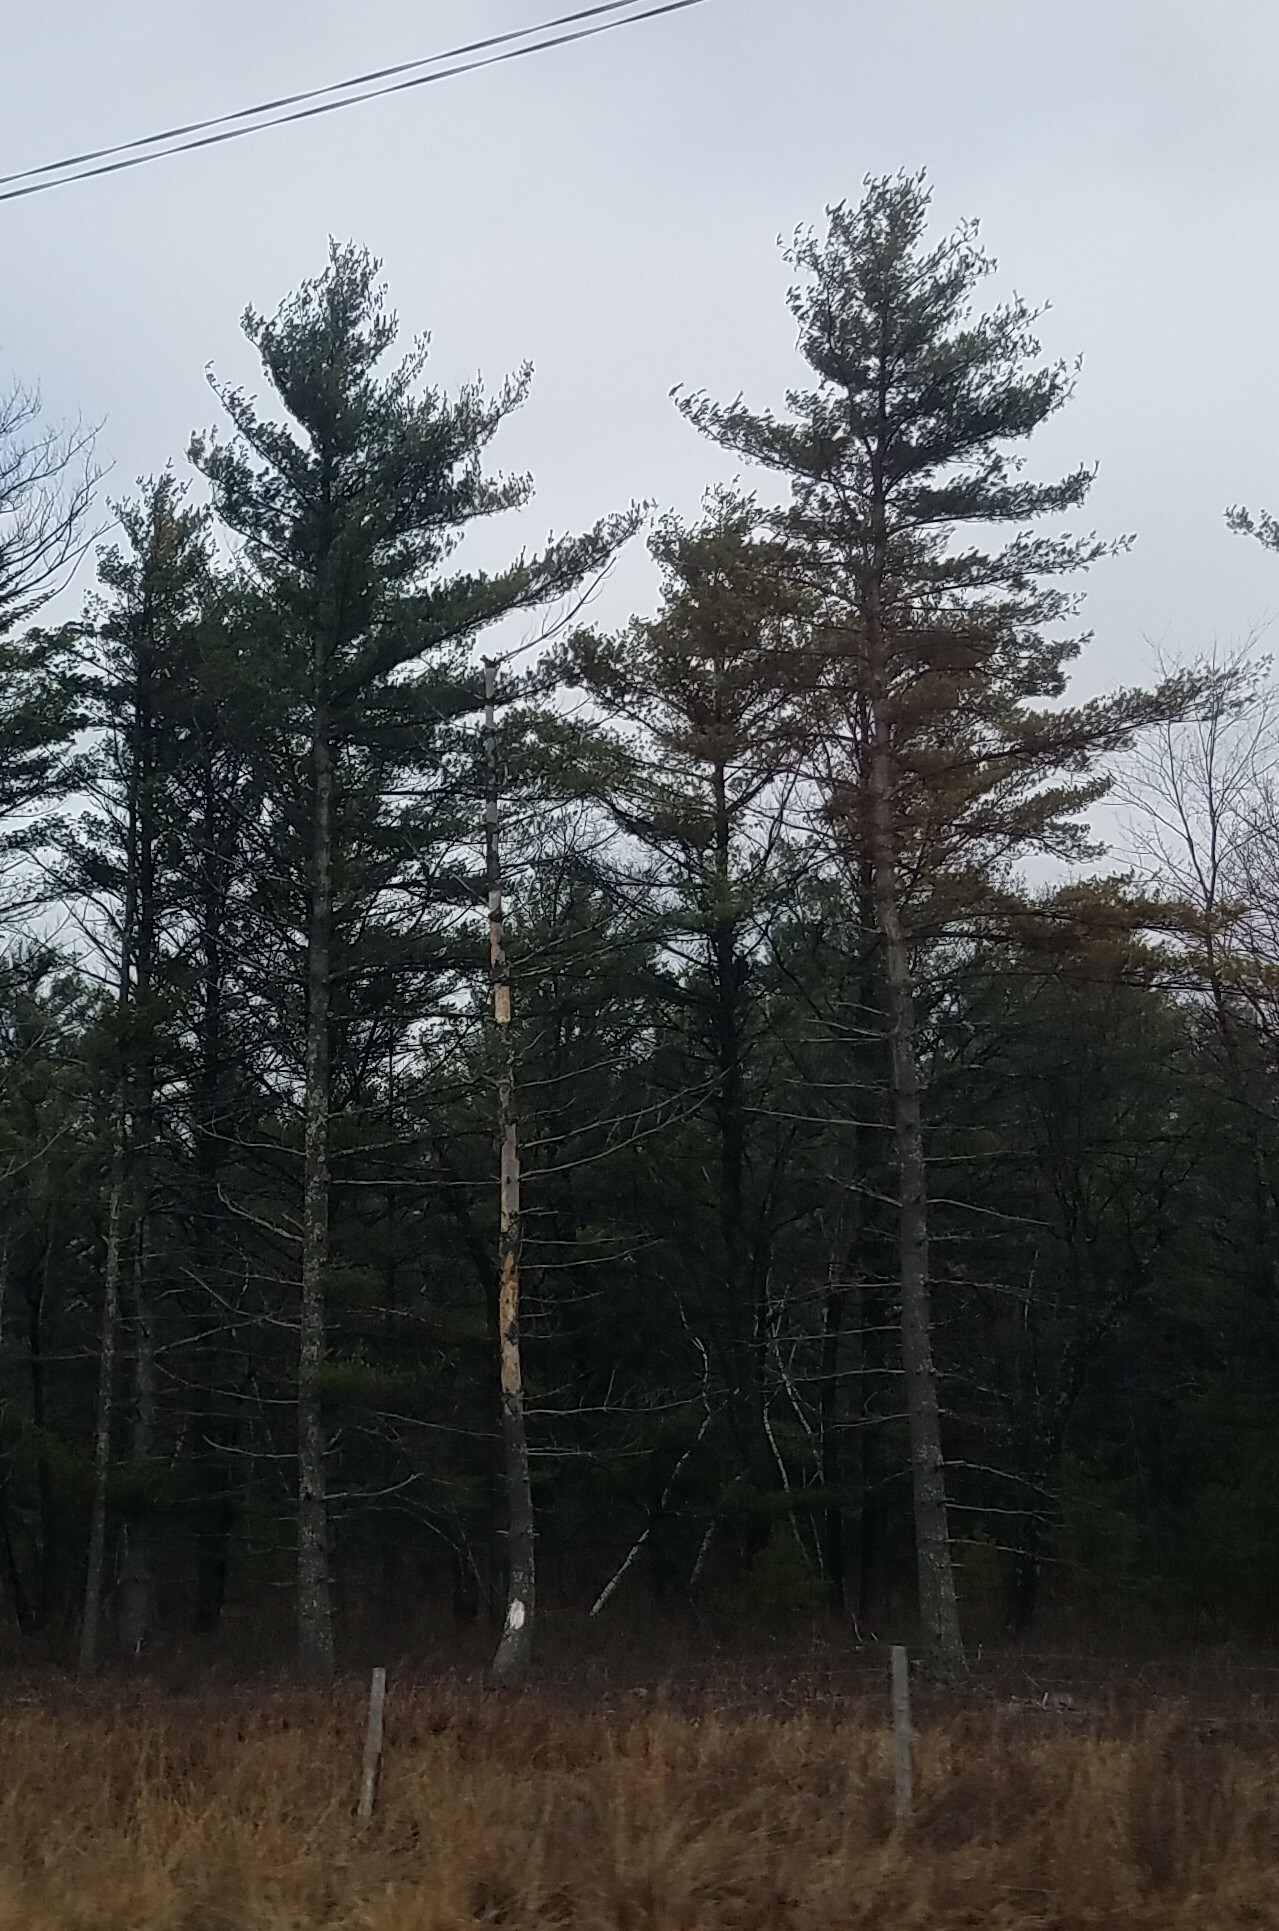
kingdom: Plantae
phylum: Tracheophyta
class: Pinopsida
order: Pinales
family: Pinaceae
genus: Pinus
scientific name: Pinus strobus
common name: Weymouth pine
